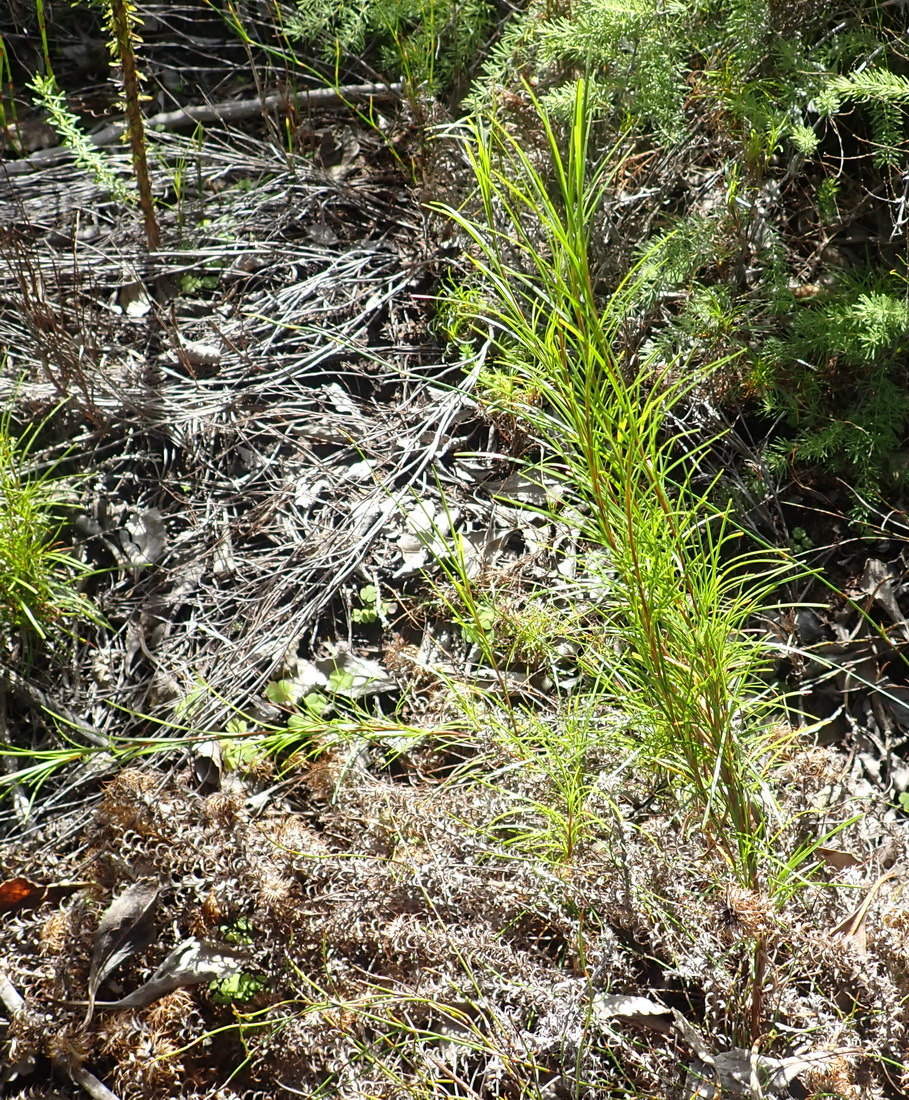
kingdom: Plantae
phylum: Tracheophyta
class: Liliopsida
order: Poales
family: Cyperaceae
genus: Ficinia
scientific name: Ficinia ramosissima
